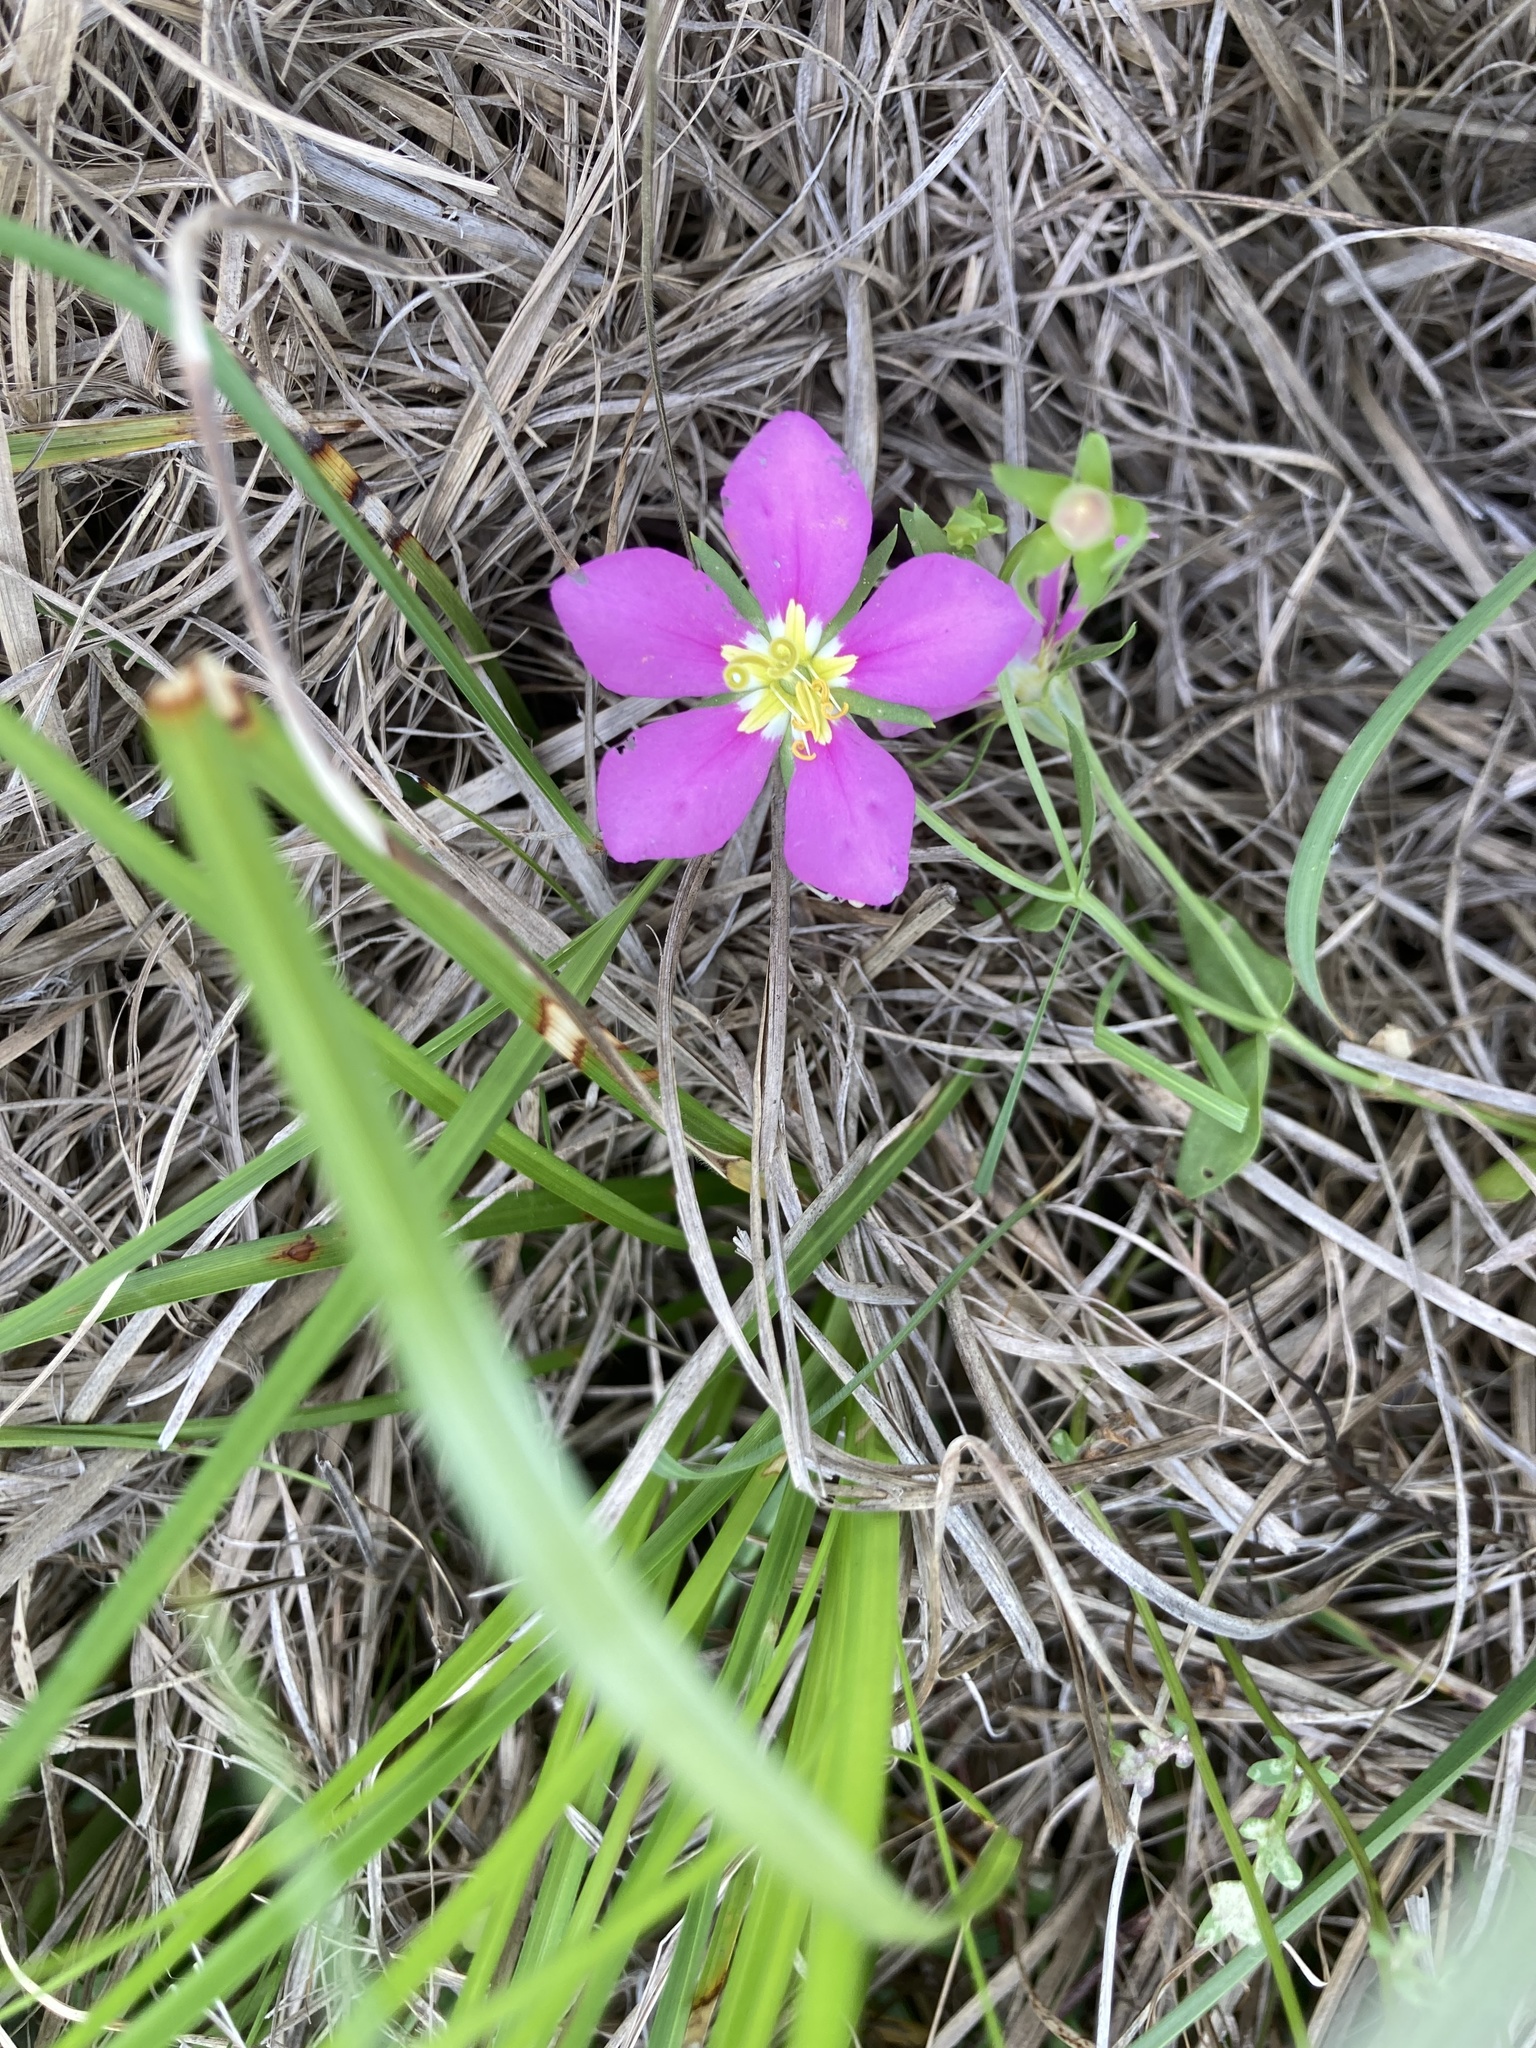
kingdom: Plantae
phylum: Tracheophyta
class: Magnoliopsida
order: Gentianales
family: Gentianaceae
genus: Sabatia
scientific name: Sabatia campestris
